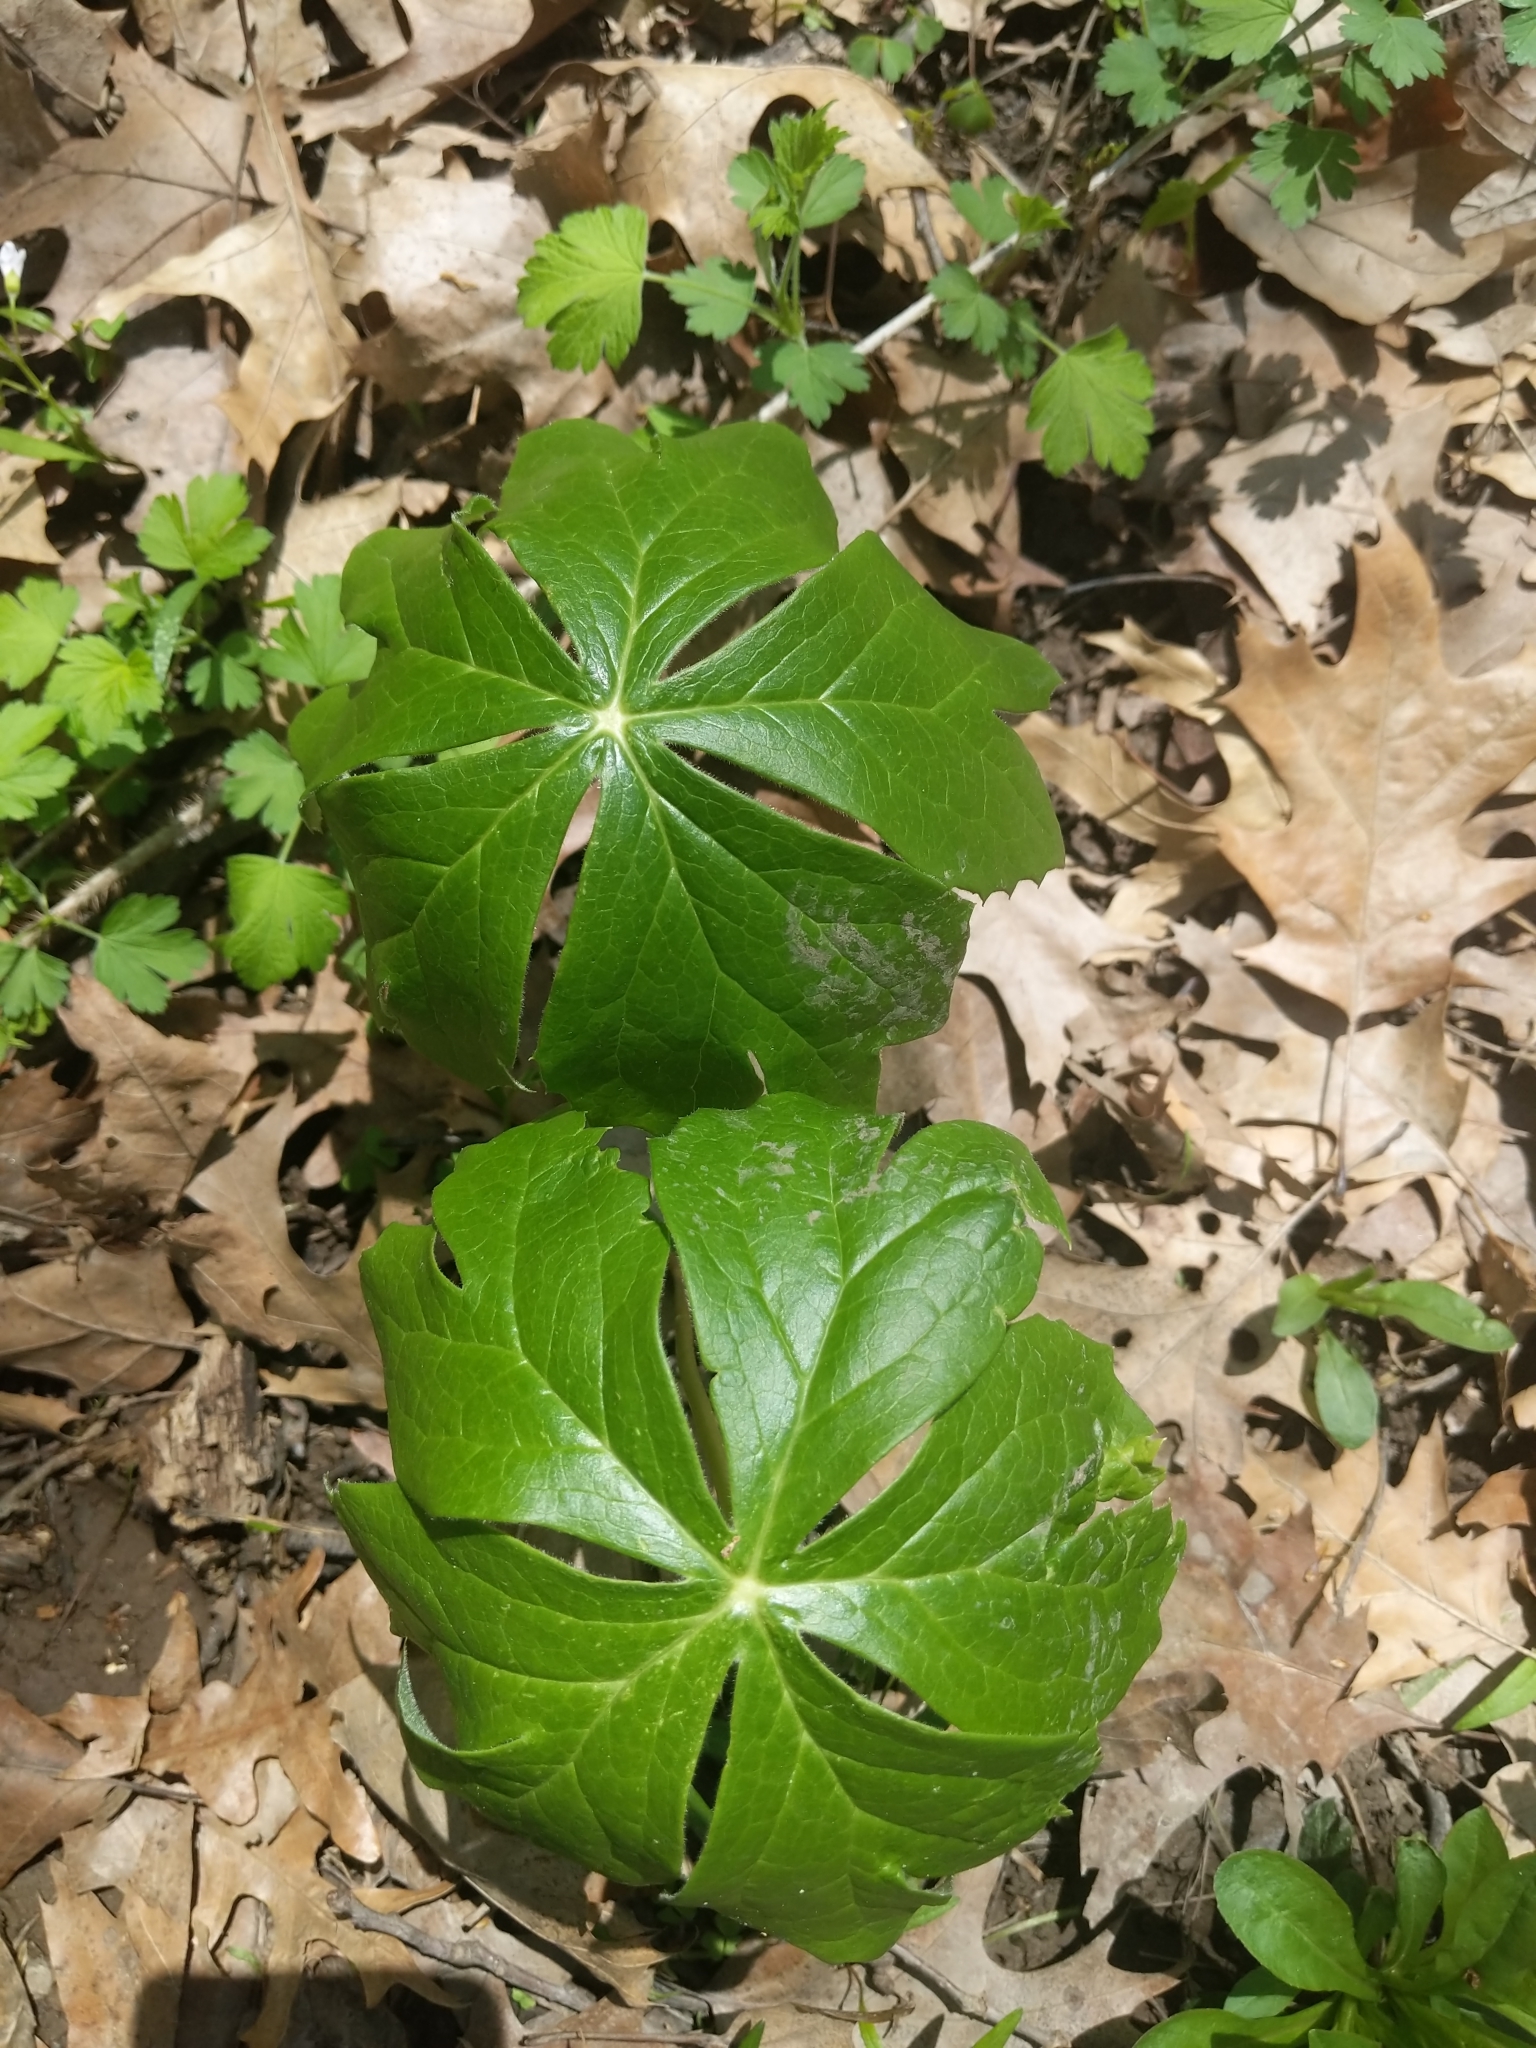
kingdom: Plantae
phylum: Tracheophyta
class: Magnoliopsida
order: Ranunculales
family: Berberidaceae
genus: Podophyllum
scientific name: Podophyllum peltatum
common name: Wild mandrake
